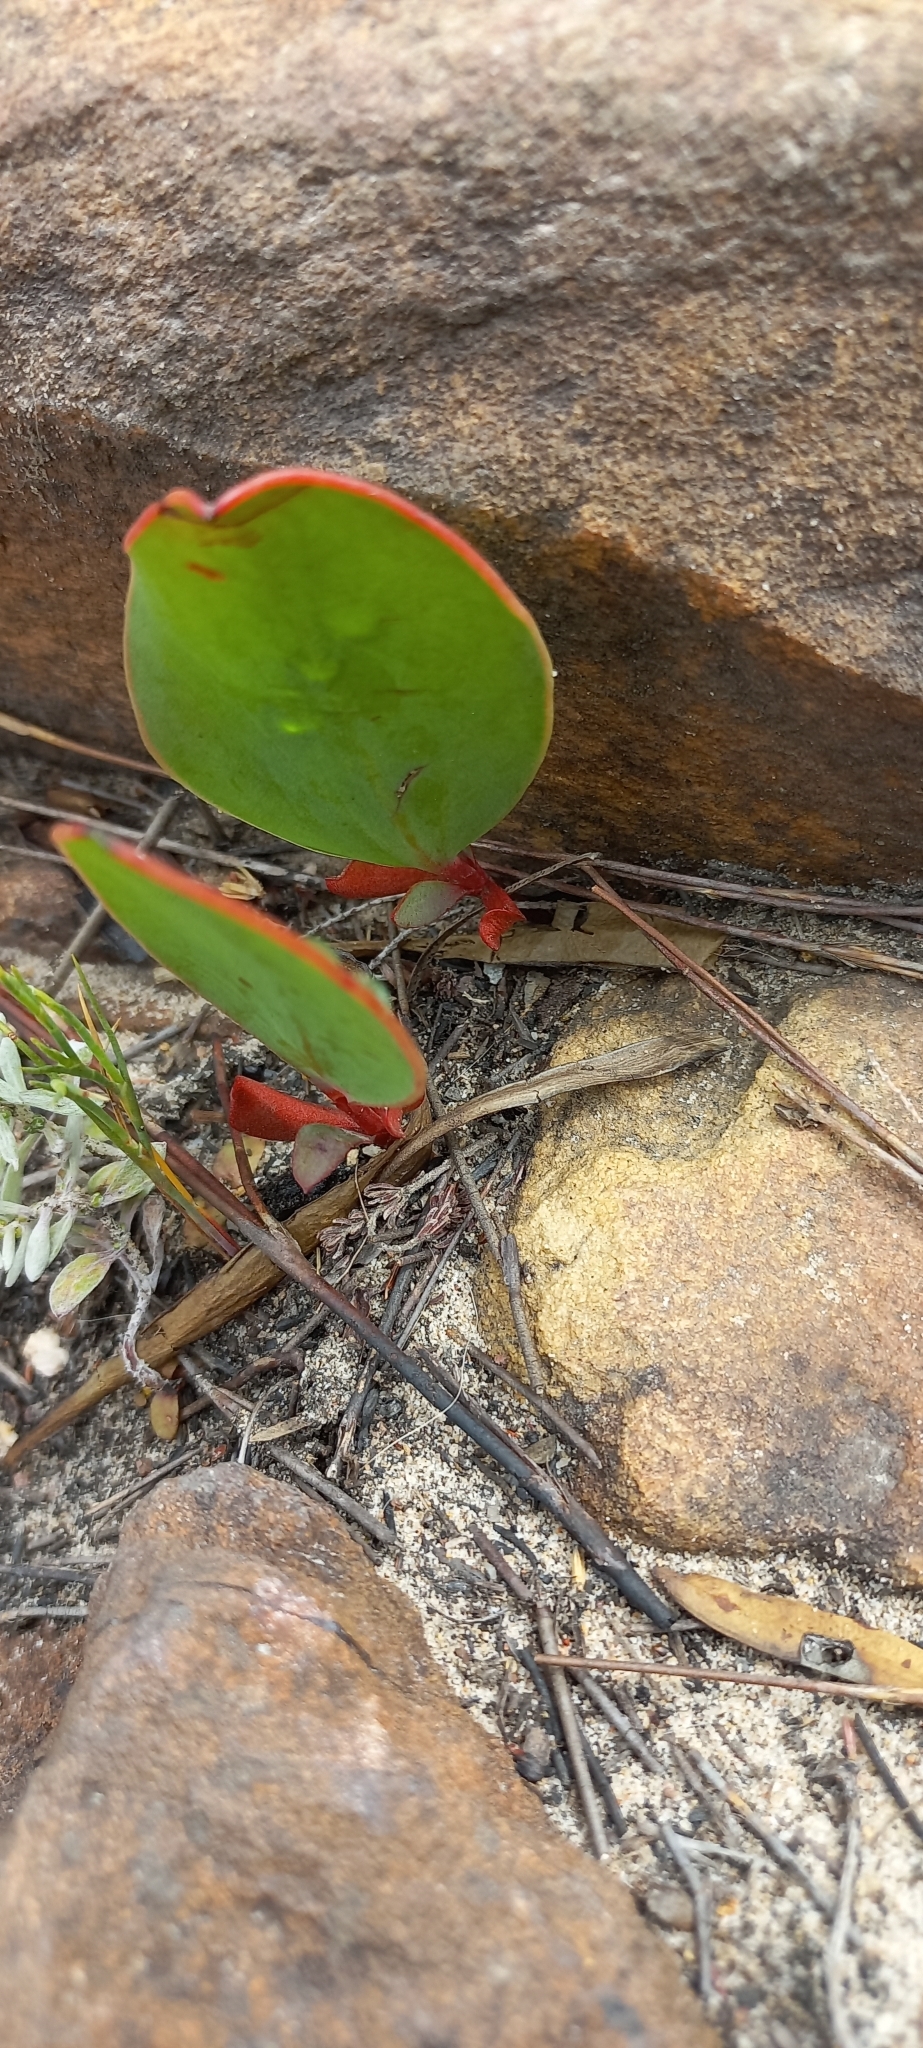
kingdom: Plantae
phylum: Tracheophyta
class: Magnoliopsida
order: Proteales
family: Proteaceae
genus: Protea
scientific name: Protea cordata
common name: Heart-leaf sugarbush
